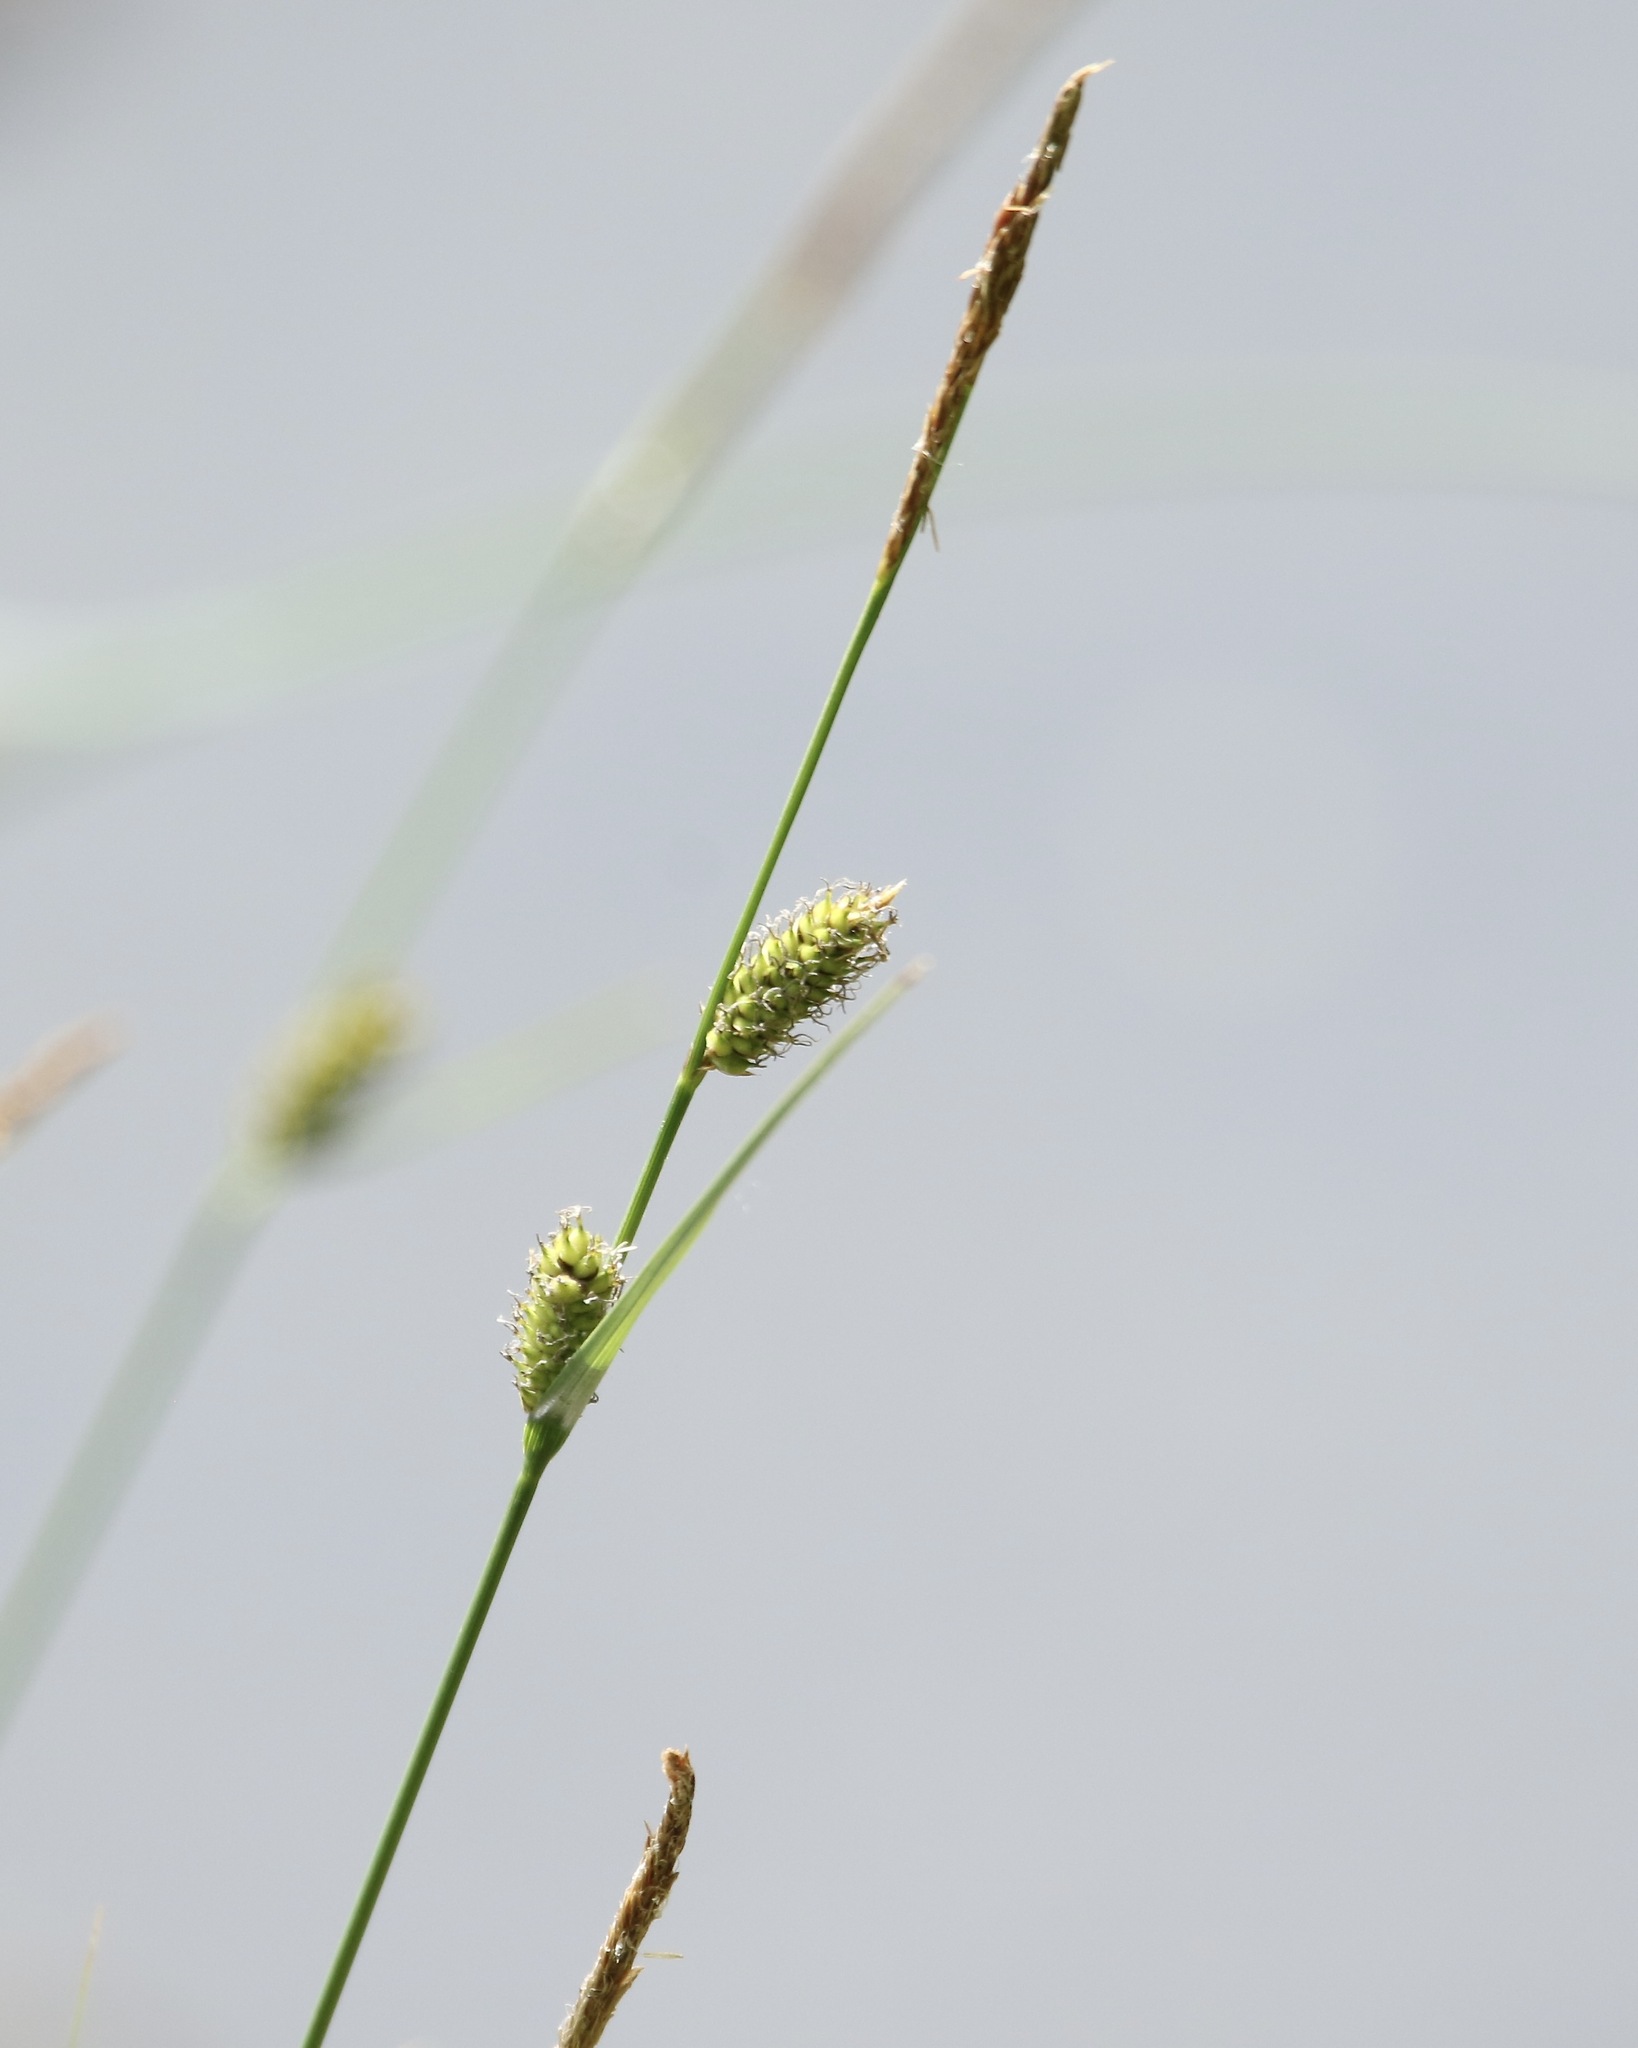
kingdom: Plantae
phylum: Tracheophyta
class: Liliopsida
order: Poales
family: Cyperaceae
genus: Carex
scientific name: Carex lasiocarpa
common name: Slender sedge
